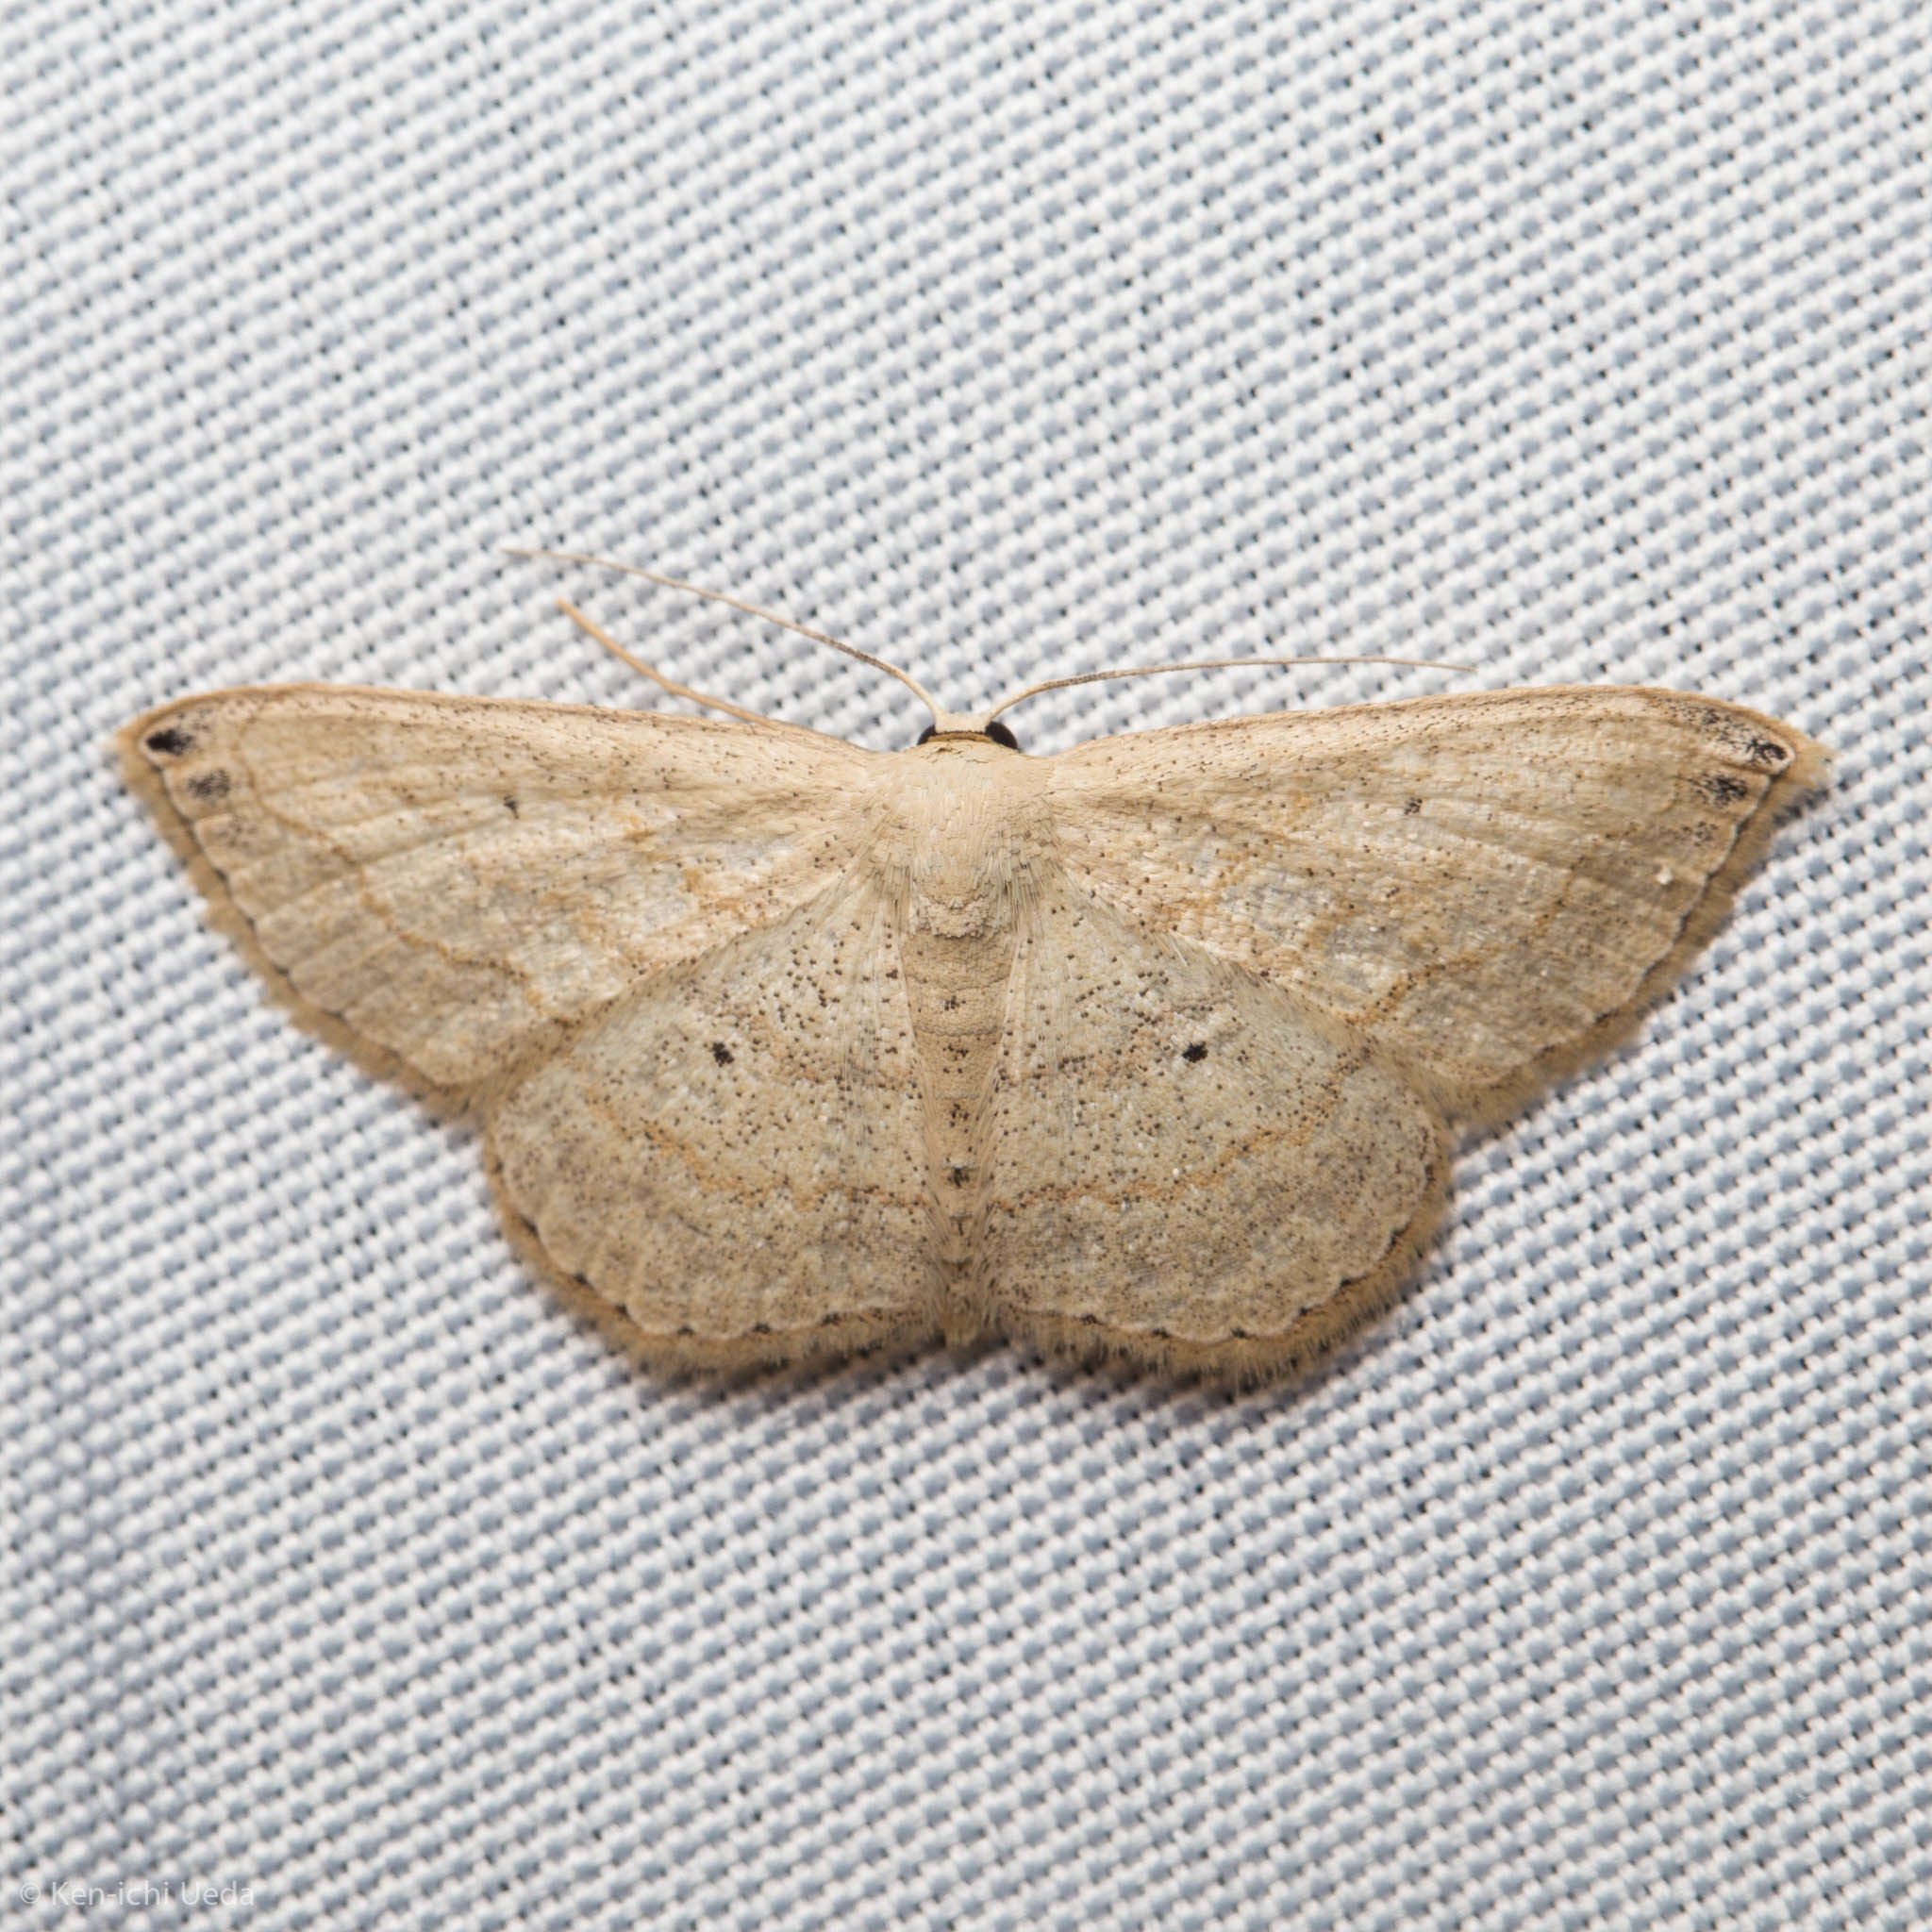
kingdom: Animalia
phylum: Arthropoda
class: Insecta
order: Lepidoptera
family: Geometridae
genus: Scopula
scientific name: Scopula umbilicata
